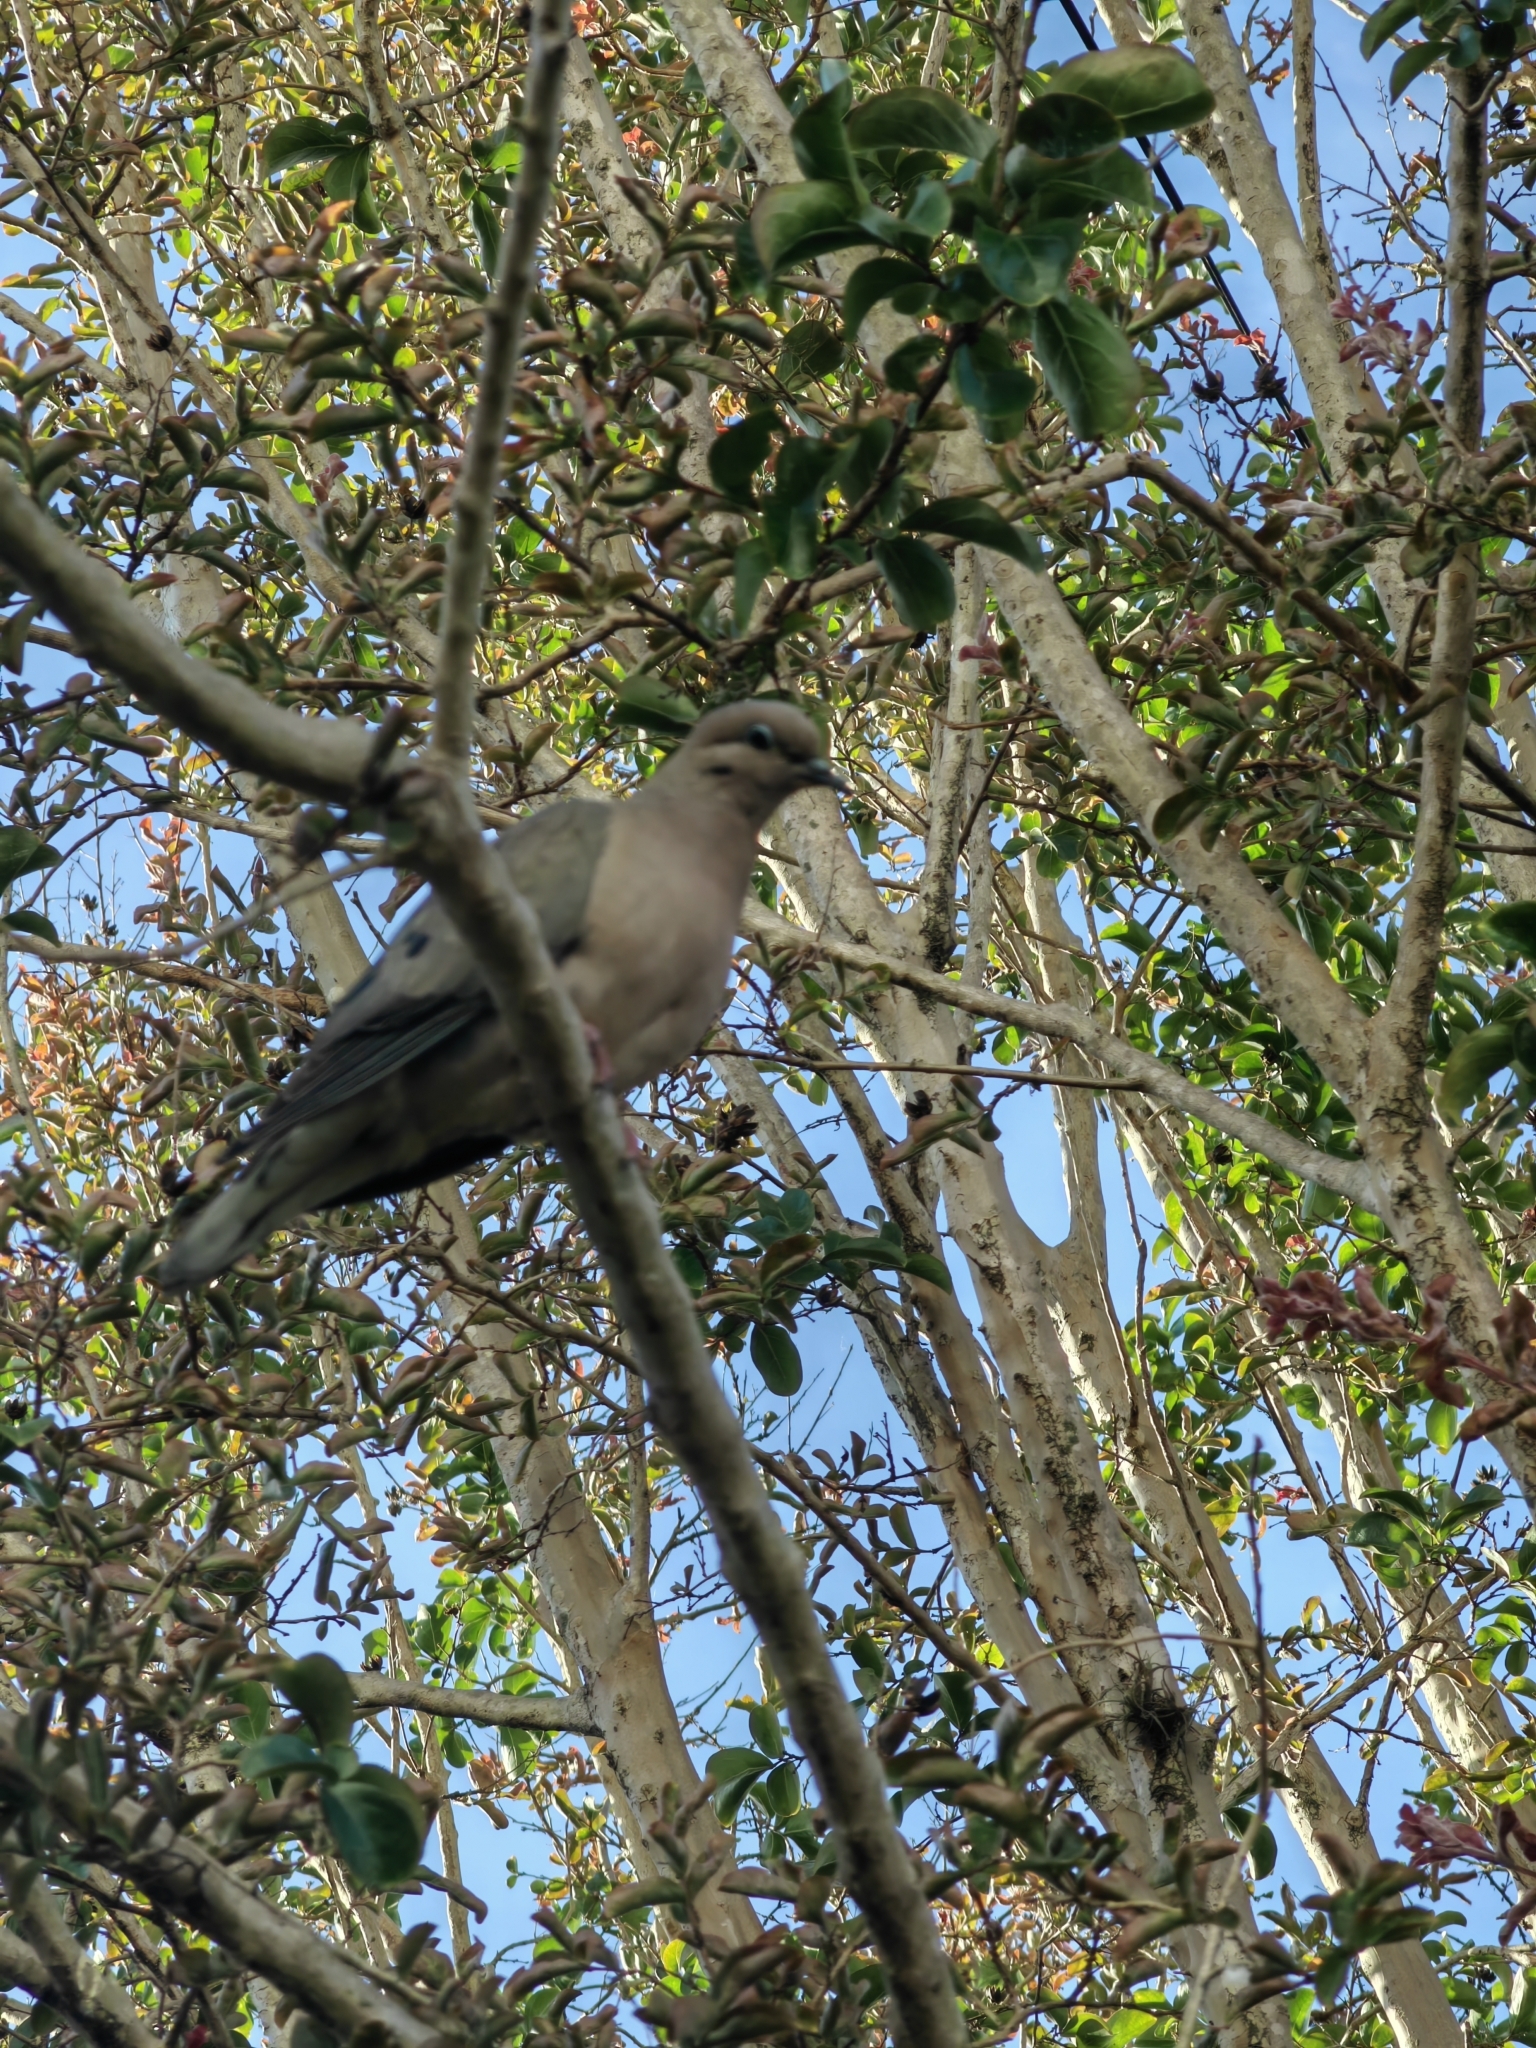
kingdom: Animalia
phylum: Chordata
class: Aves
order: Columbiformes
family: Columbidae
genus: Zenaida
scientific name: Zenaida auriculata
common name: Eared dove
